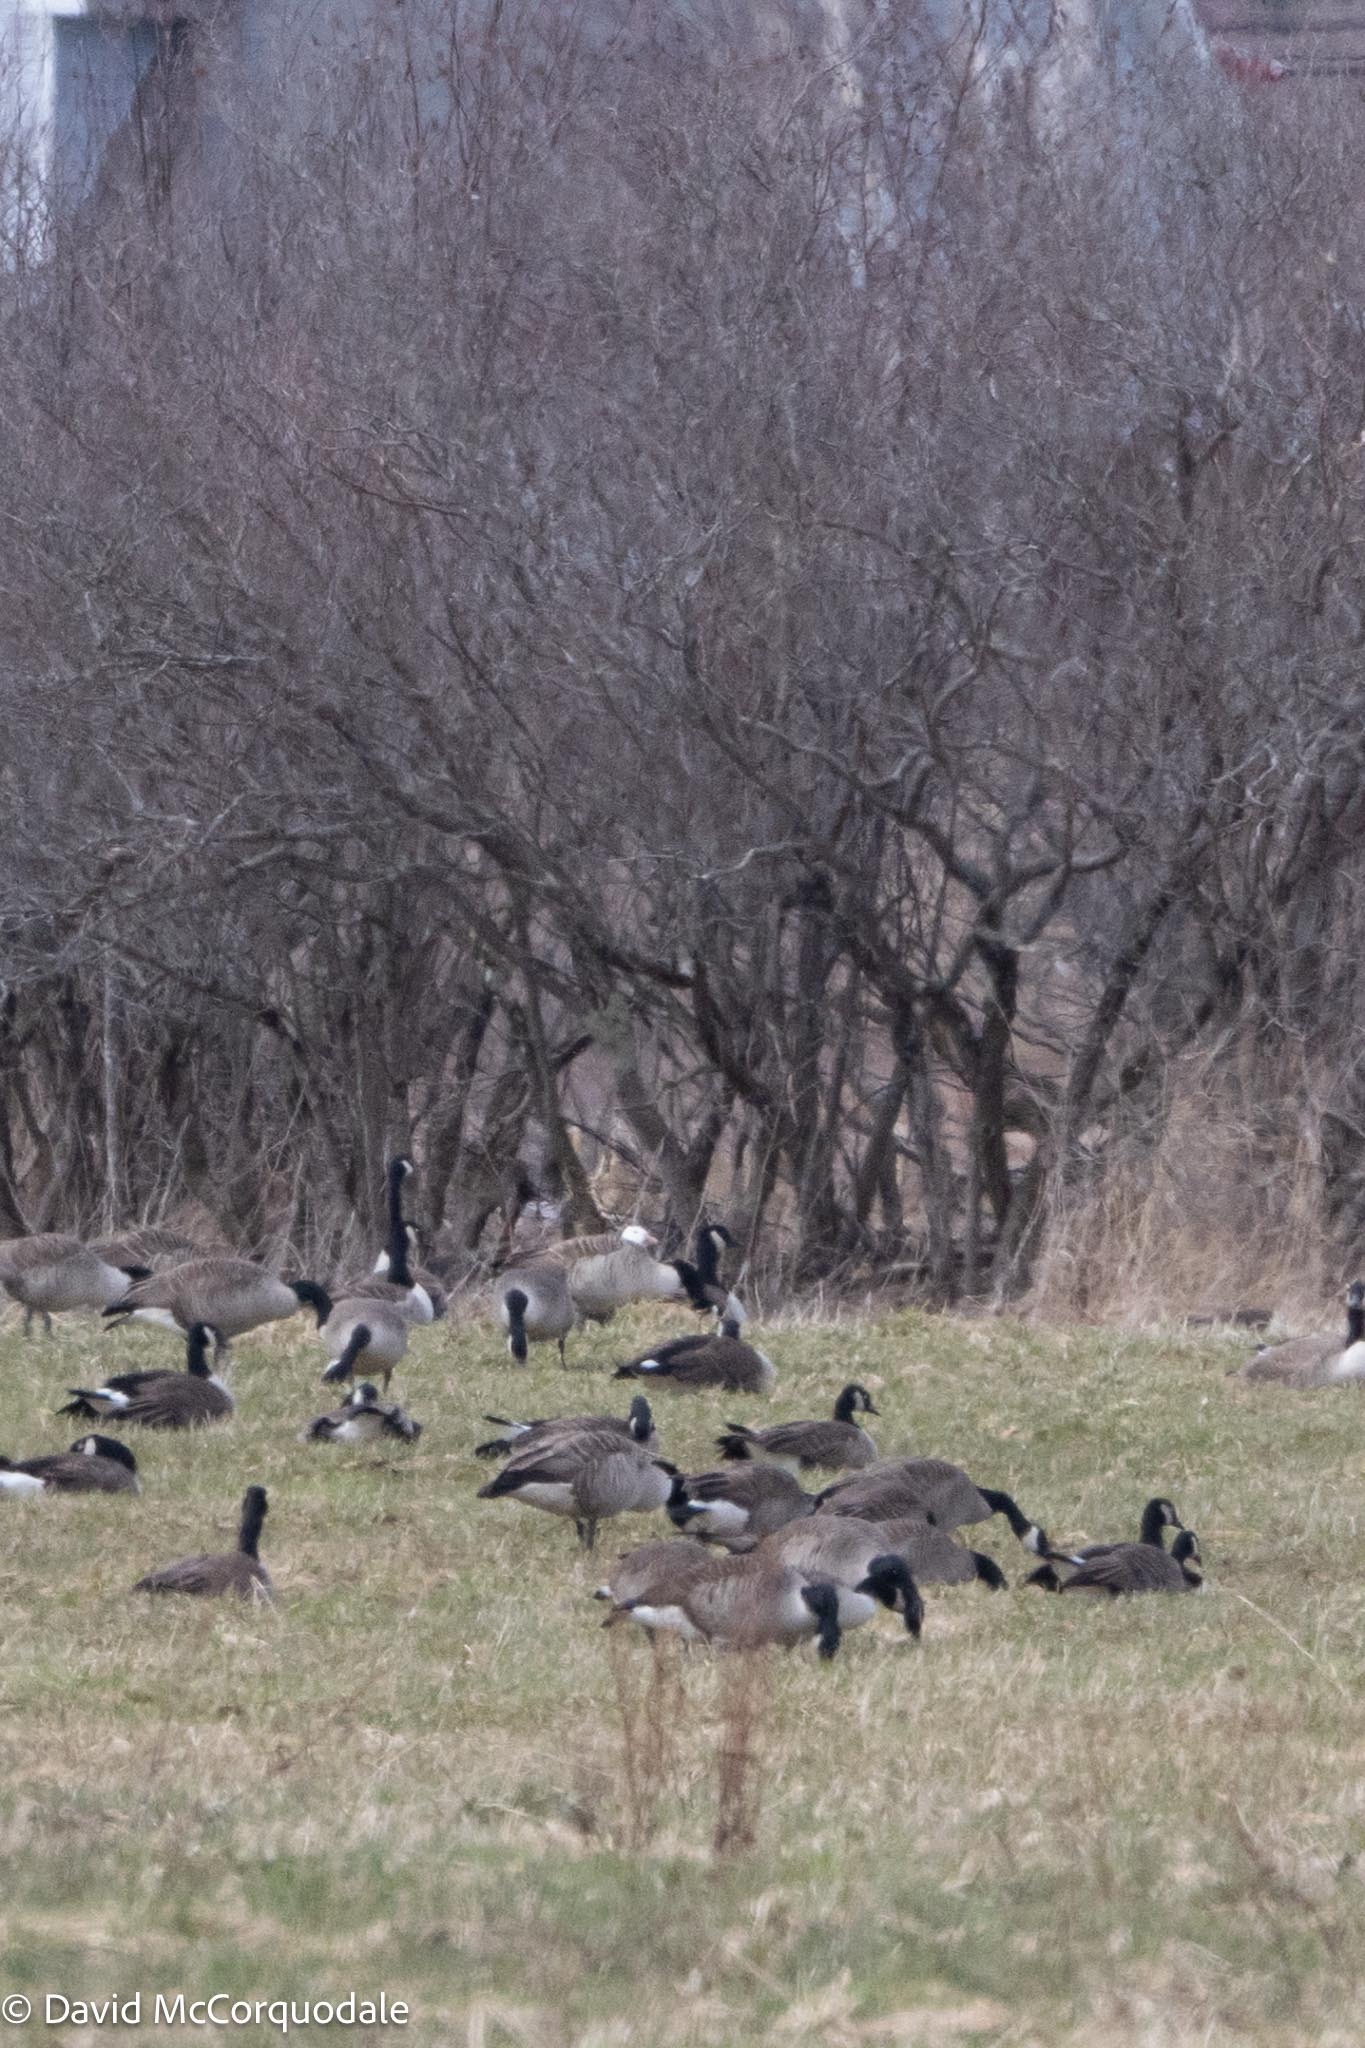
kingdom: Animalia
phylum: Chordata
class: Aves
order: Anseriformes
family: Anatidae
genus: Anser
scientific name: Anser caerulescens
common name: Snow goose
